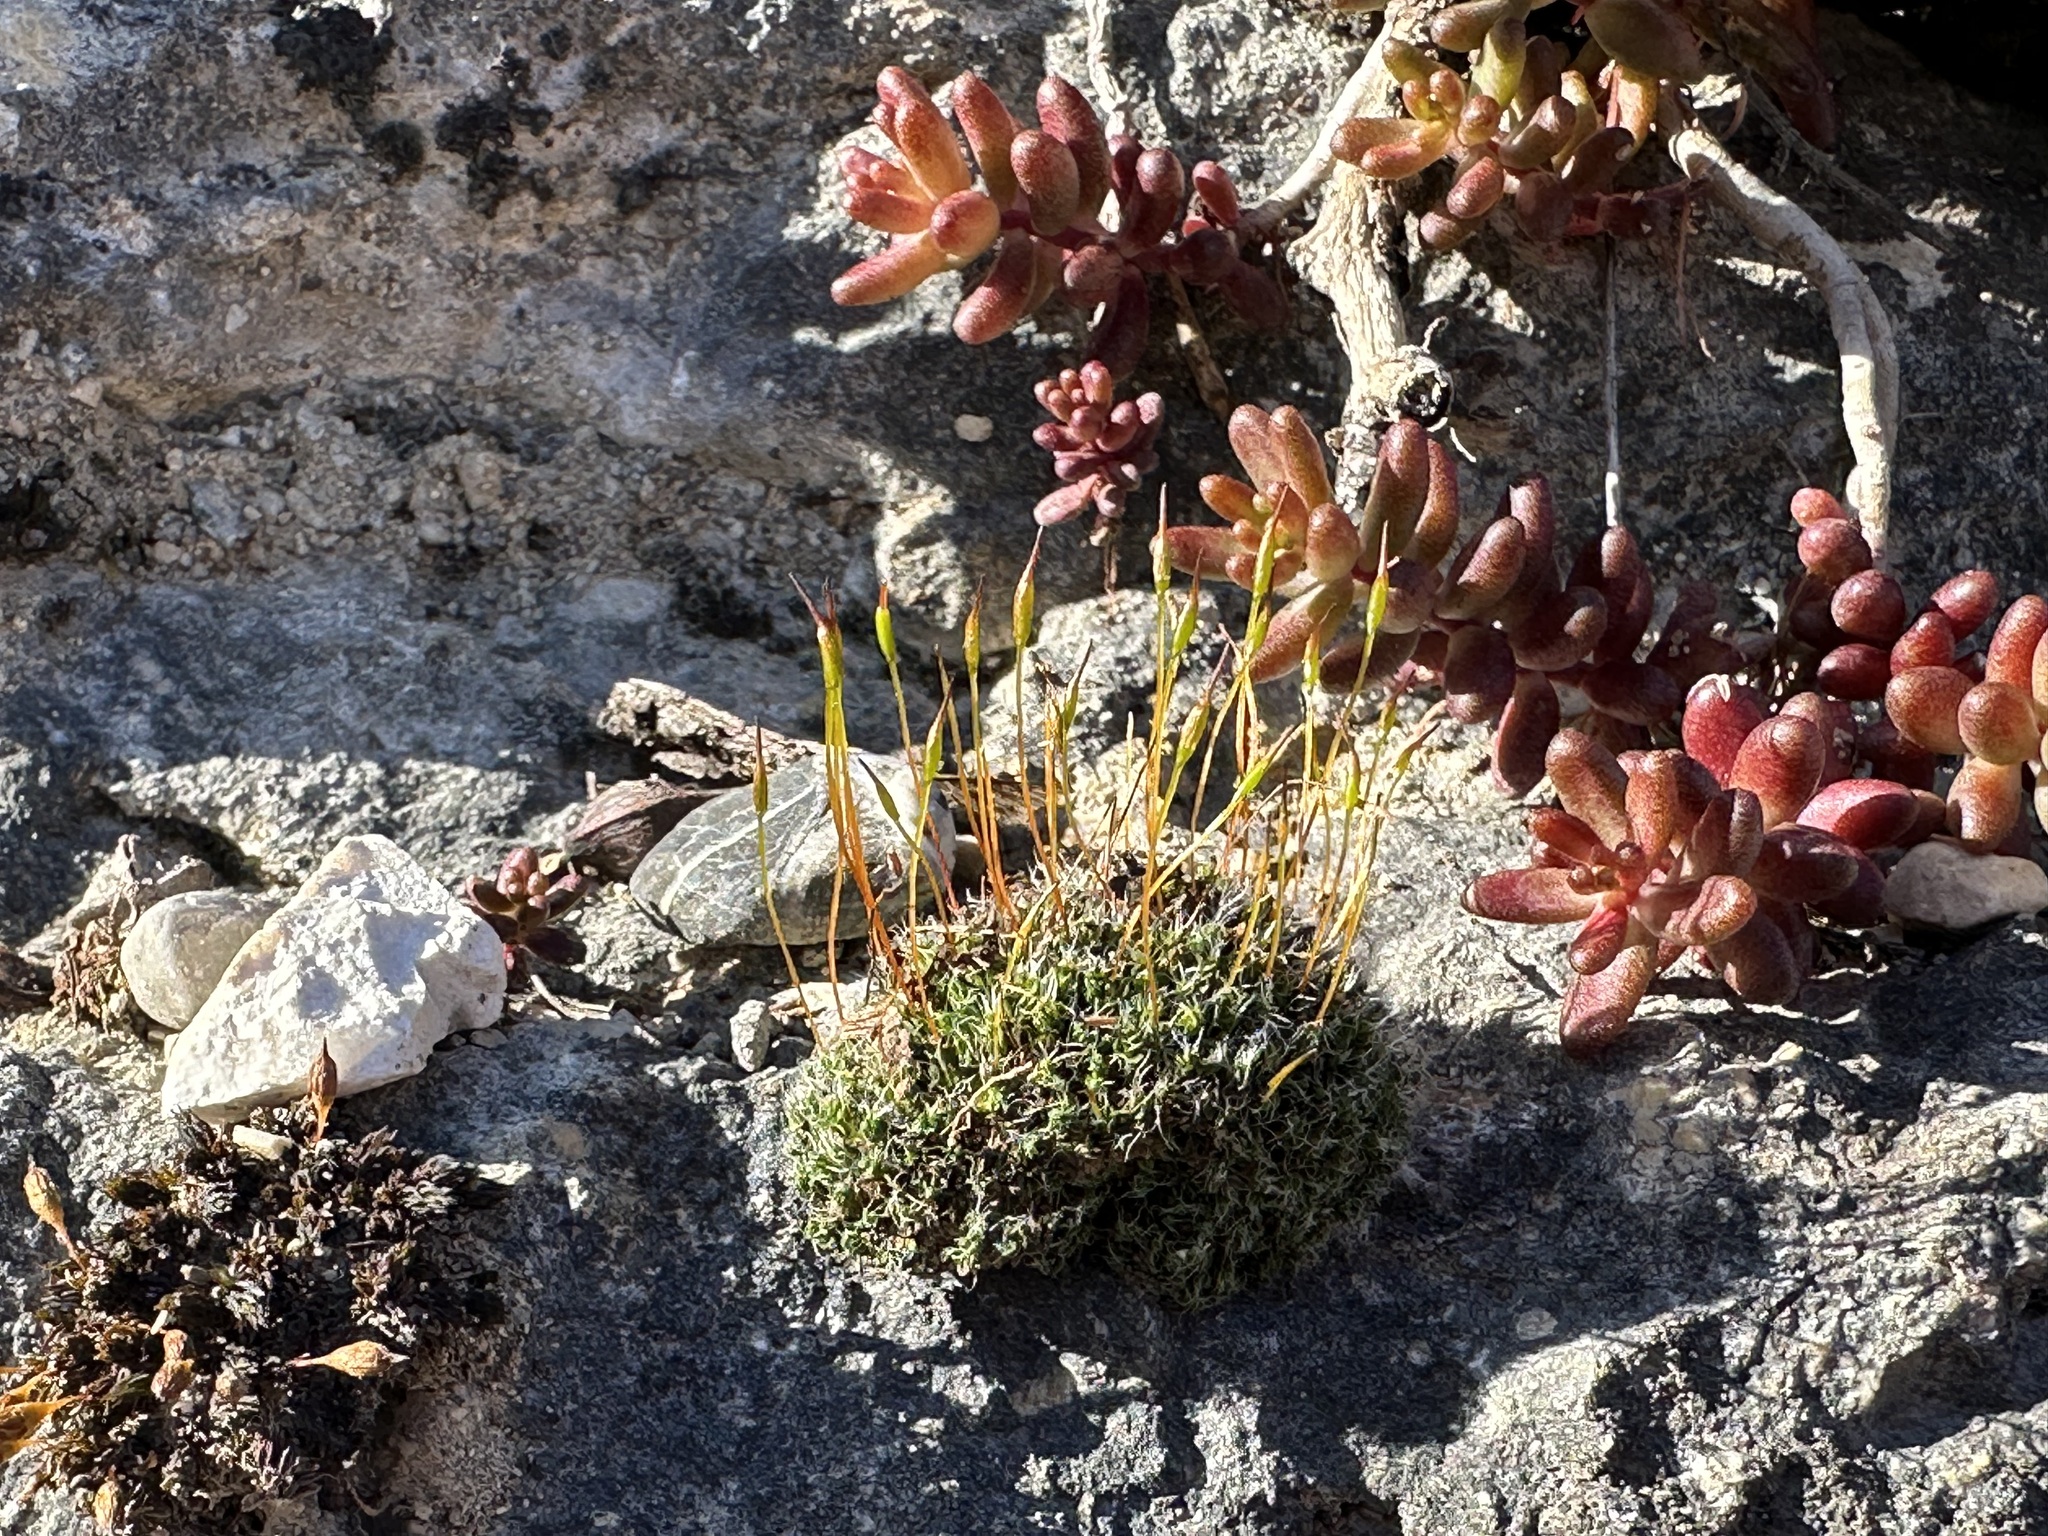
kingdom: Plantae
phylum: Bryophyta
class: Bryopsida
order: Pottiales
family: Pottiaceae
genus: Tortula
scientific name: Tortula muralis
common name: Wall screw-moss
